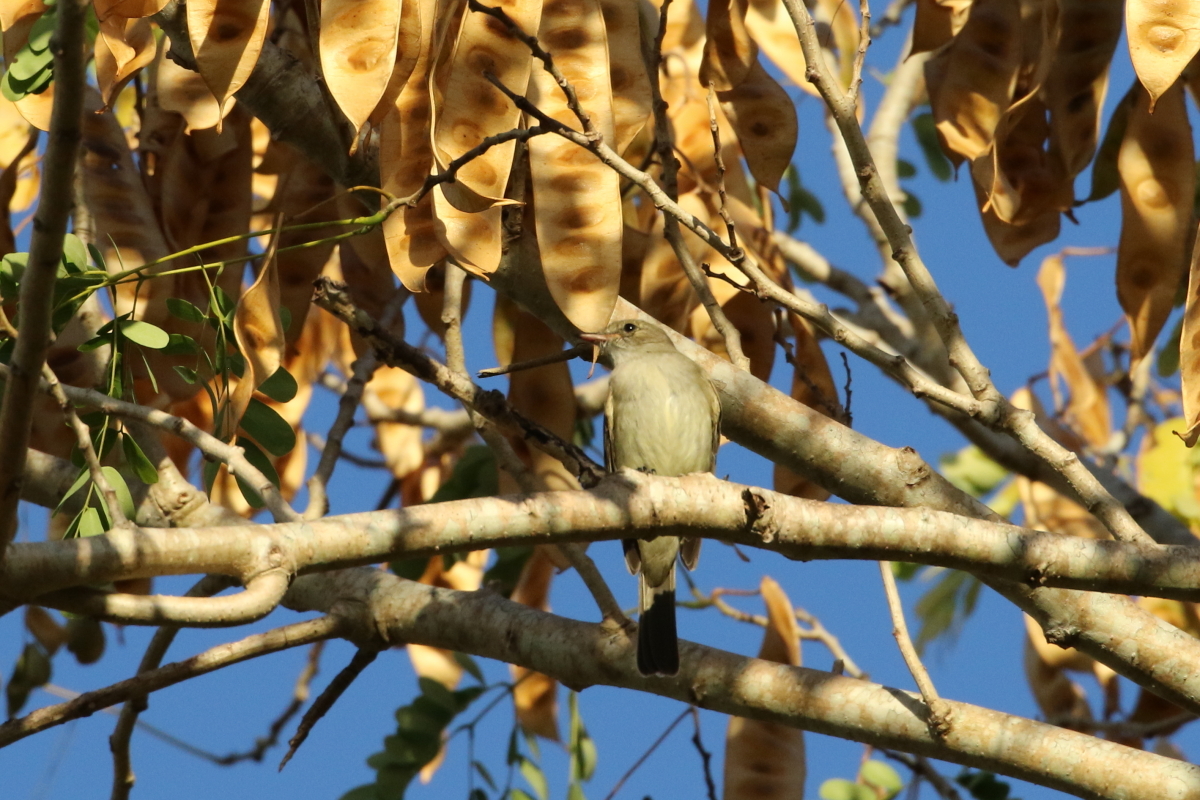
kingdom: Animalia
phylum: Chordata
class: Aves
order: Passeriformes
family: Tyrannidae
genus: Elaenia
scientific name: Elaenia martinica
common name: Caribbean elaenia
